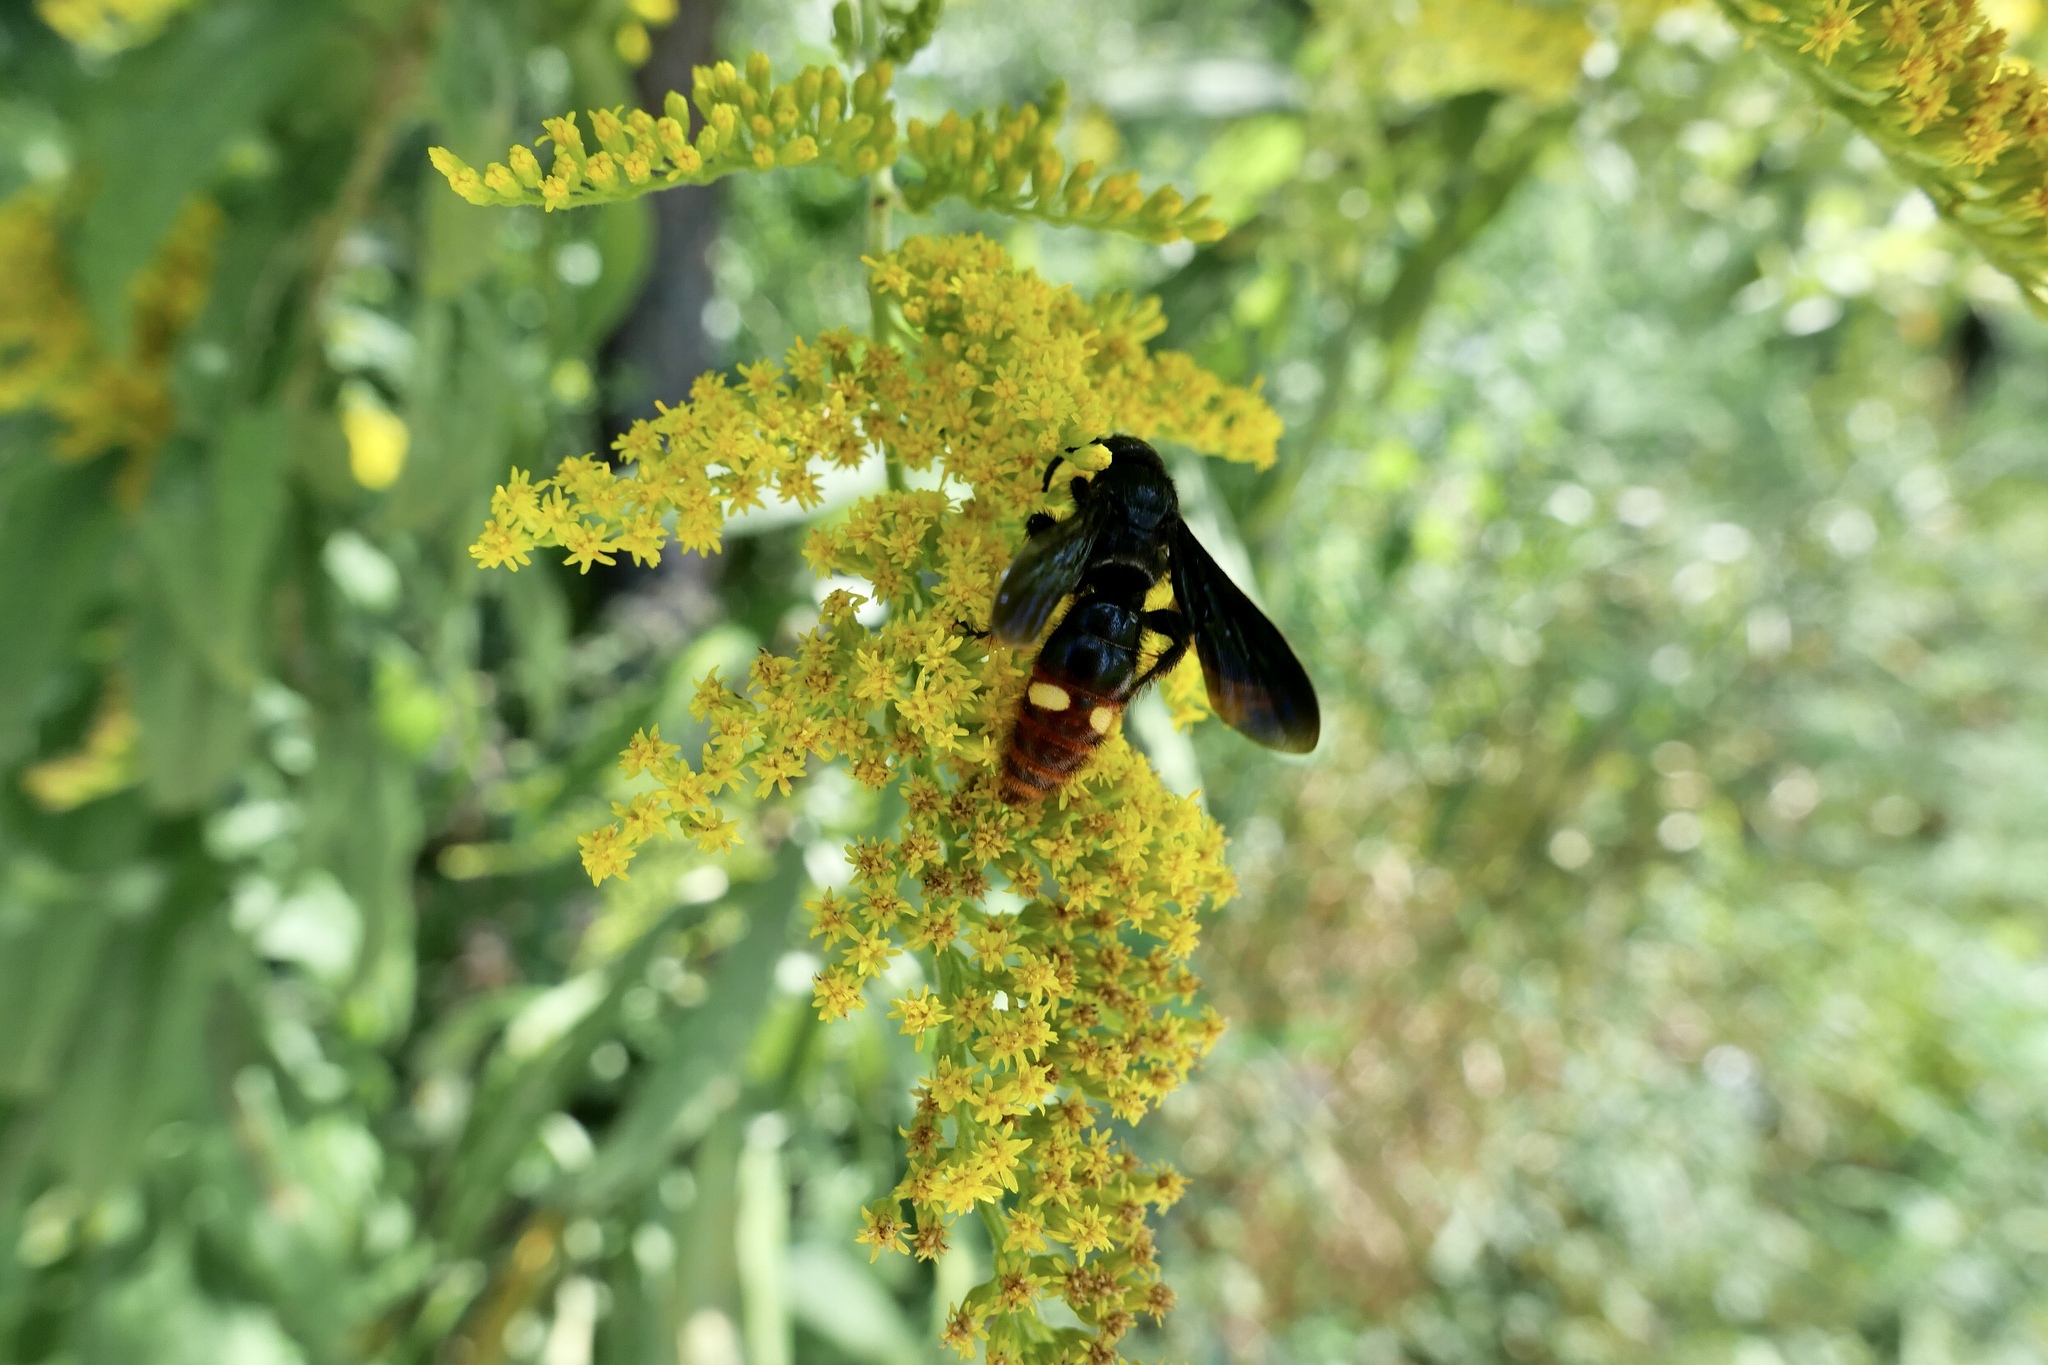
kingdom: Animalia
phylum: Arthropoda
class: Insecta
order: Hymenoptera
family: Scoliidae
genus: Scolia
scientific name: Scolia dubia
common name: Blue-winged scoliid wasp
